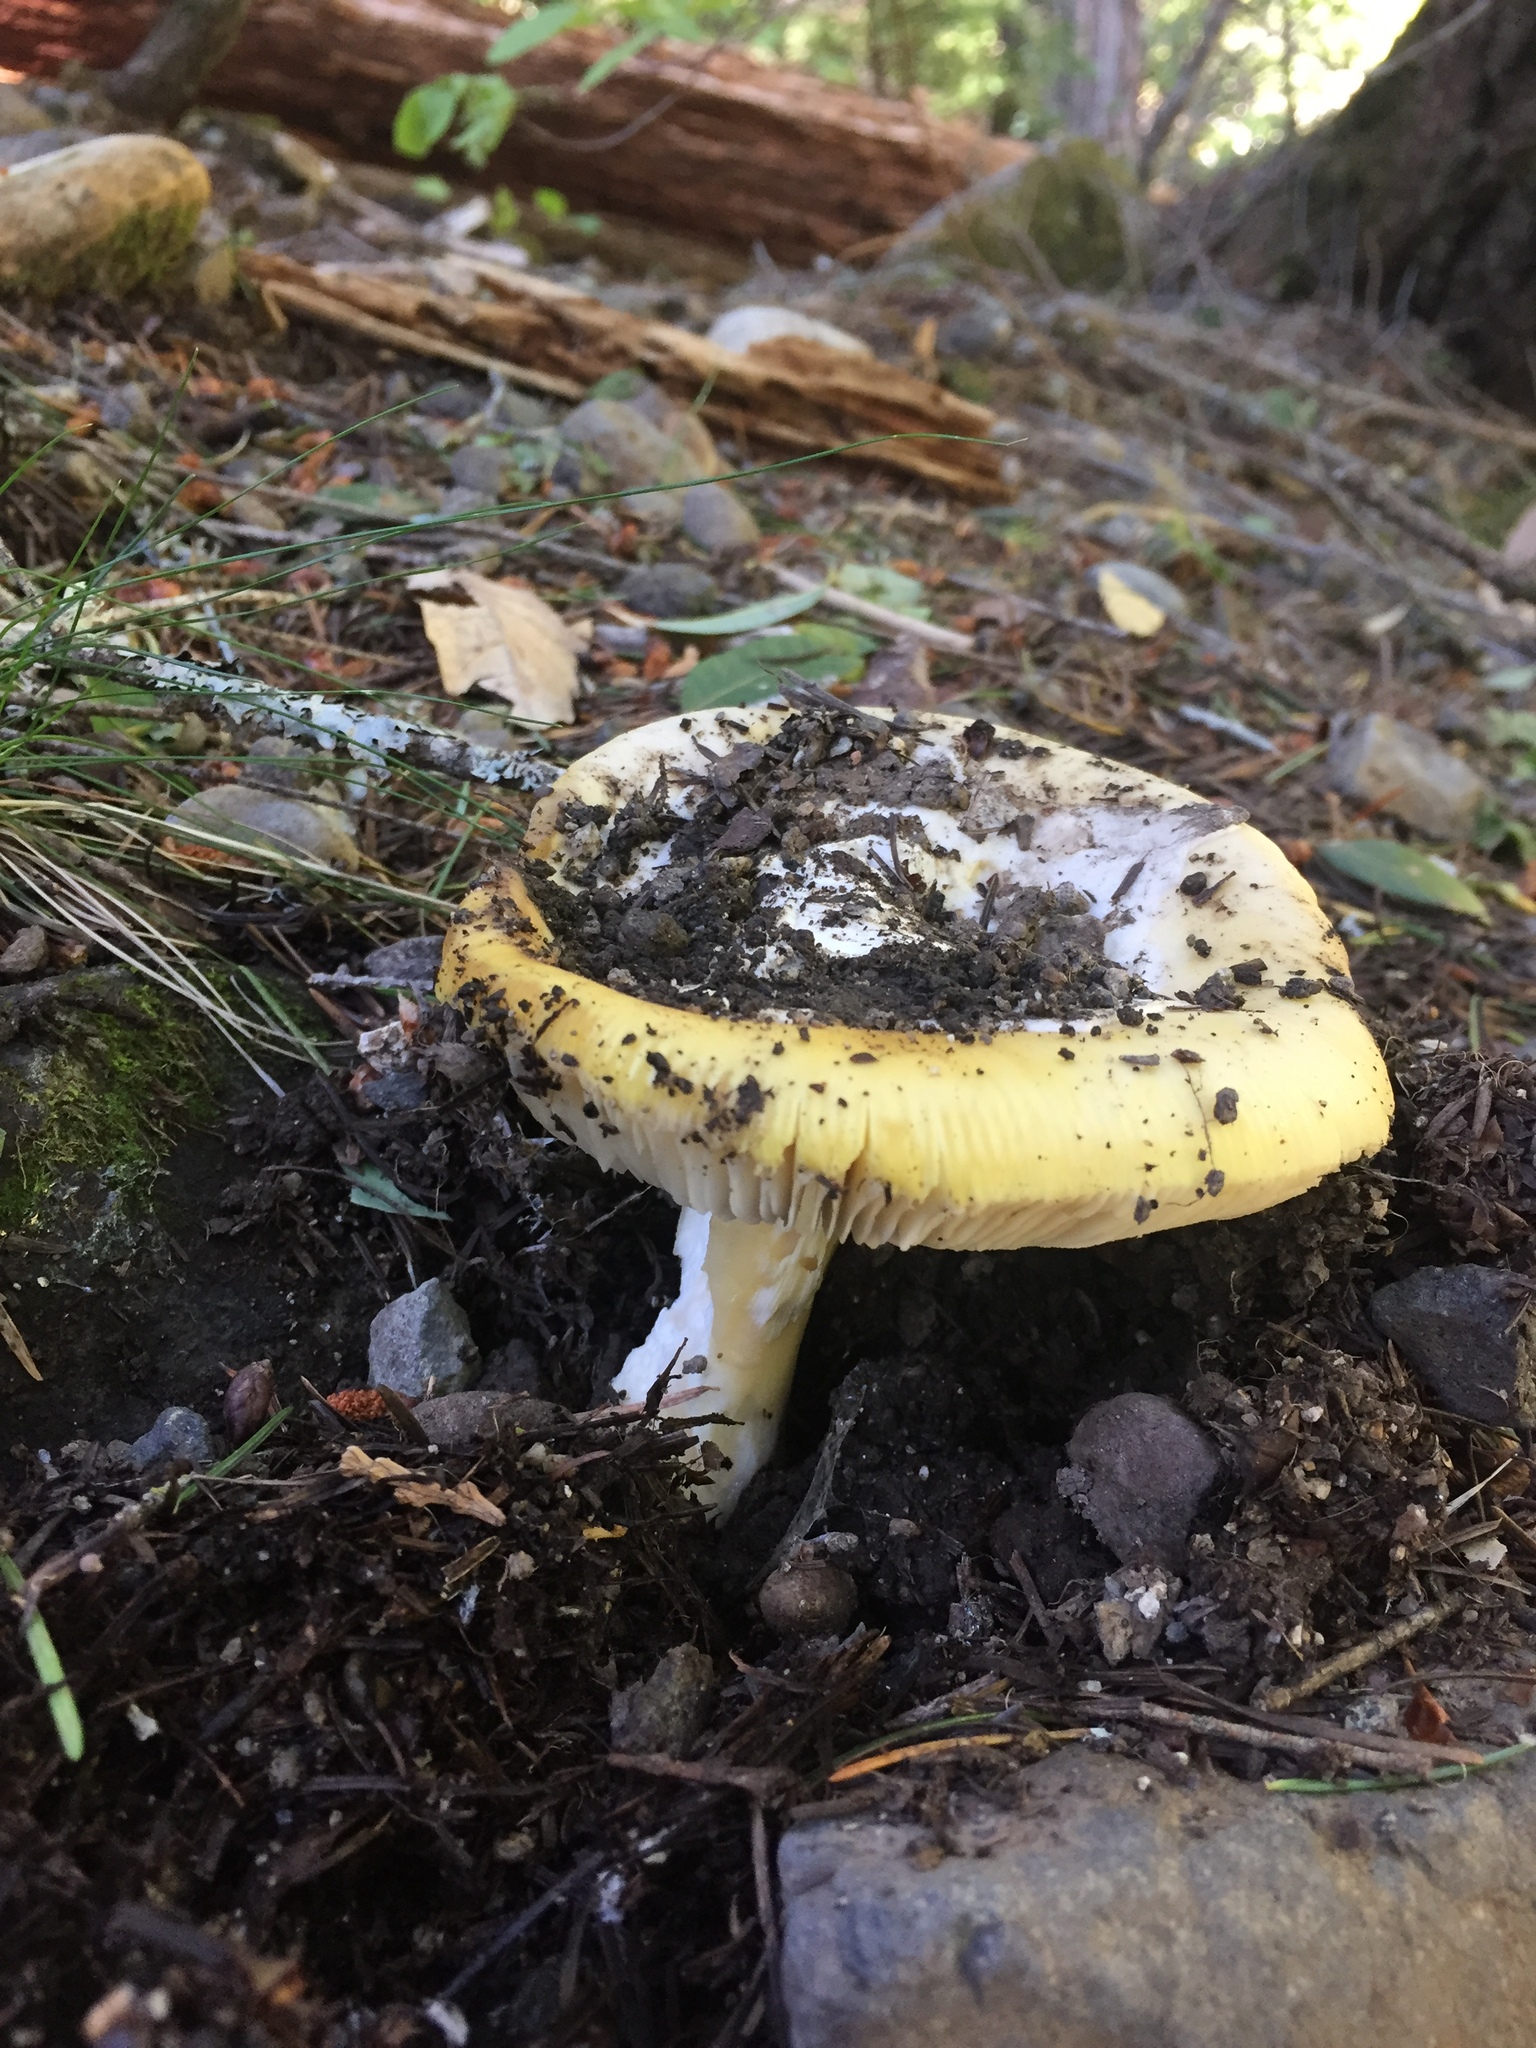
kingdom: Fungi
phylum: Basidiomycota
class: Agaricomycetes
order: Agaricales
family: Amanitaceae
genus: Amanita
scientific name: Amanita calyptroderma
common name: Coccora
